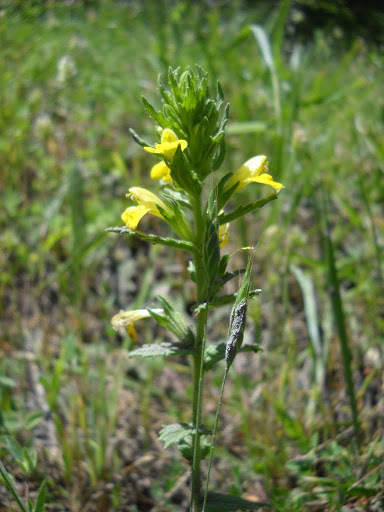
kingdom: Plantae
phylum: Tracheophyta
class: Magnoliopsida
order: Lamiales
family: Orobanchaceae
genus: Bellardia
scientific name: Bellardia viscosa
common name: Sticky parentucellia
